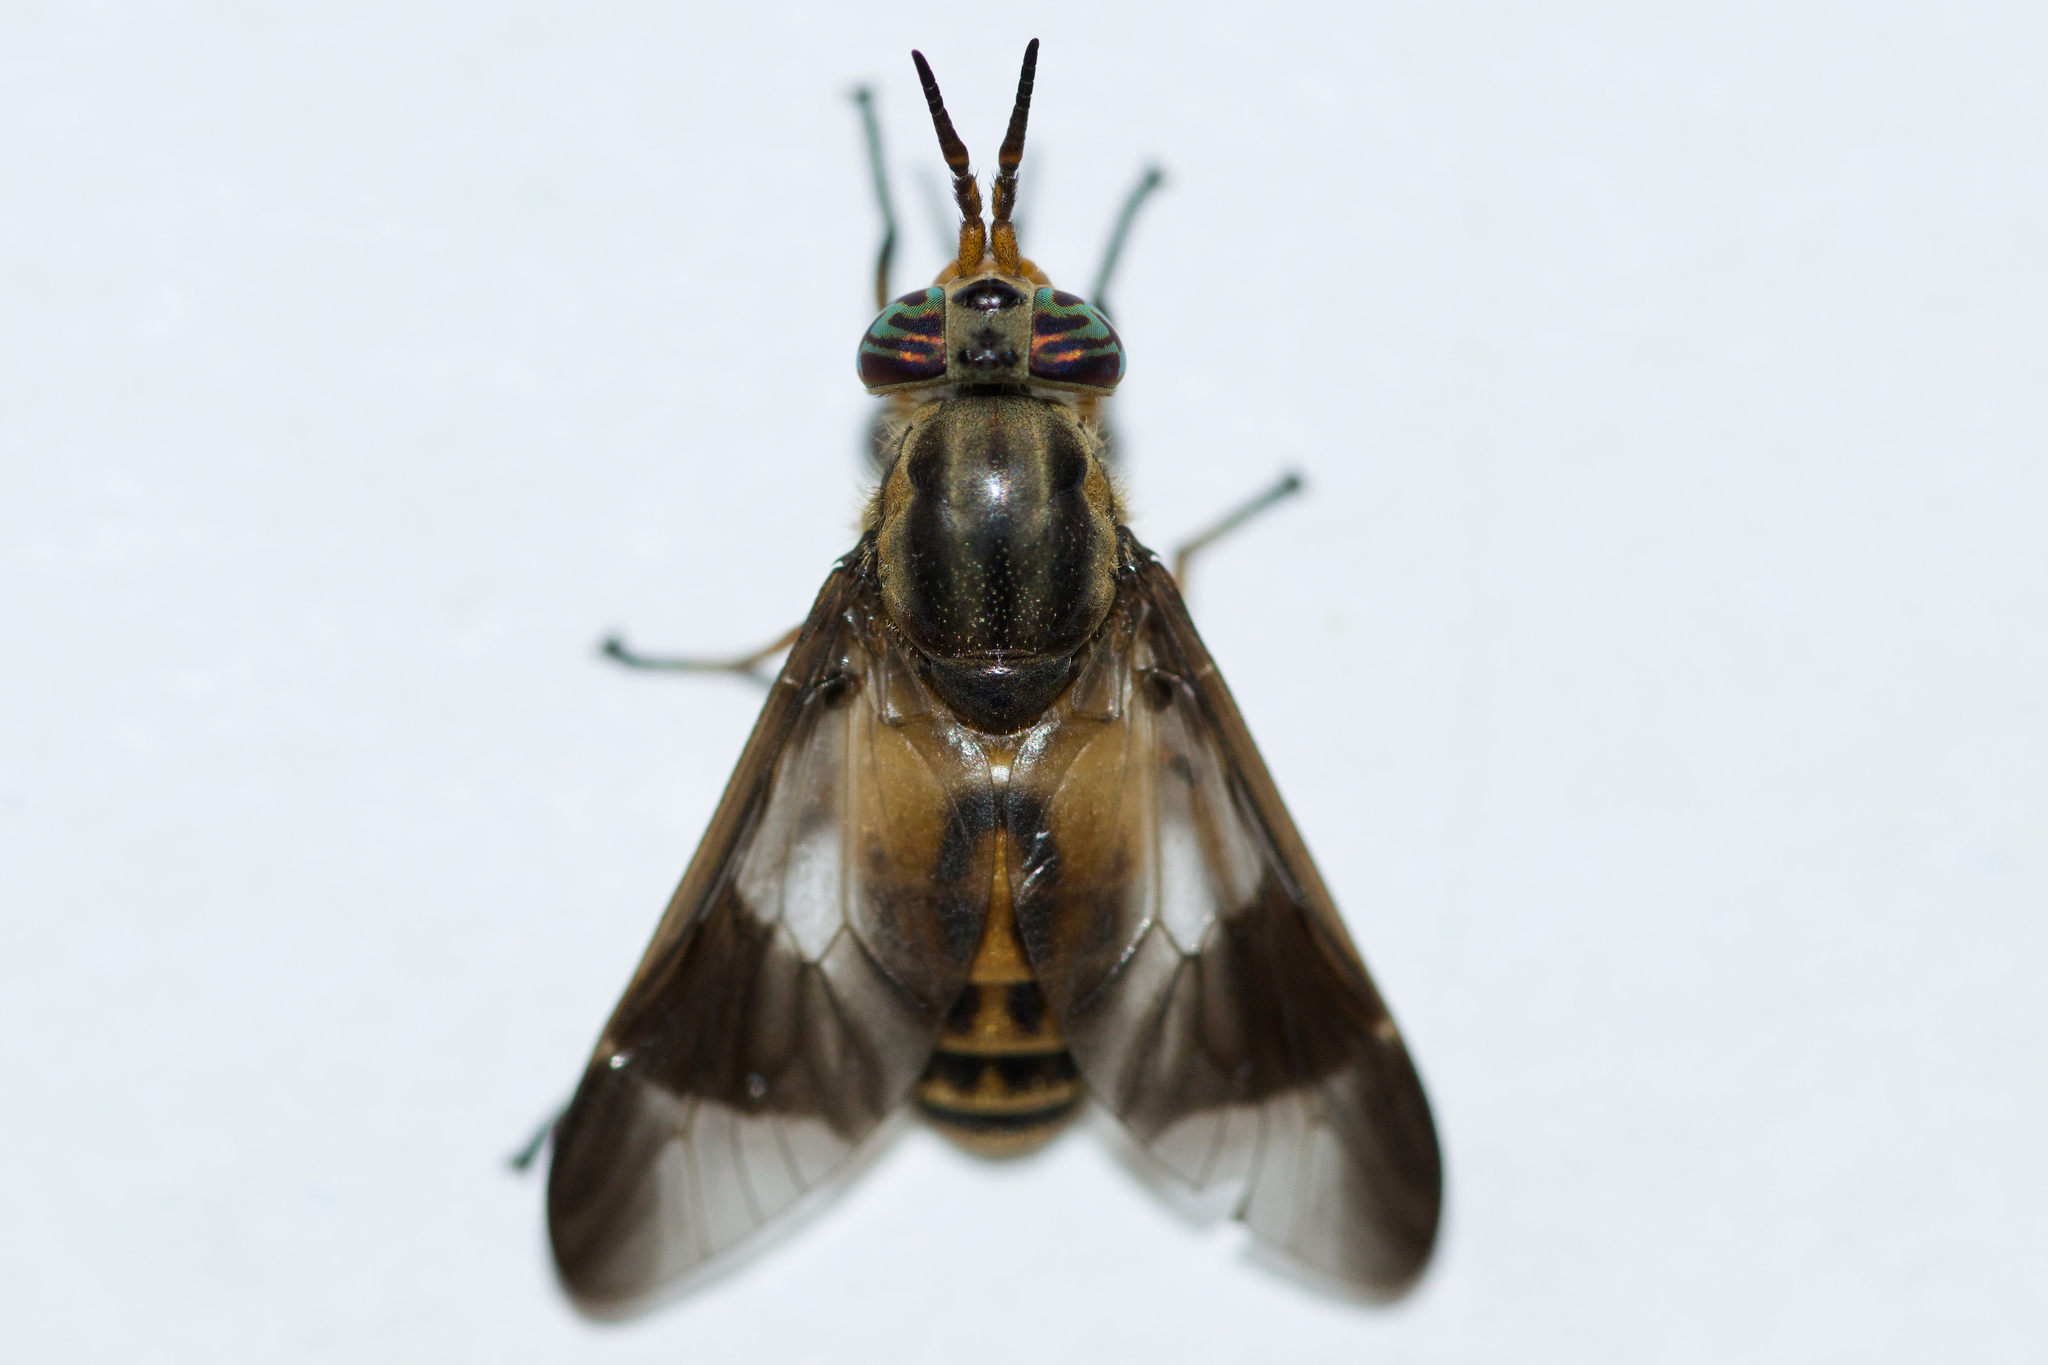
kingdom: Animalia
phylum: Arthropoda
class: Insecta
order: Diptera
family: Tabanidae
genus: Chrysops
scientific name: Chrysops montanus
